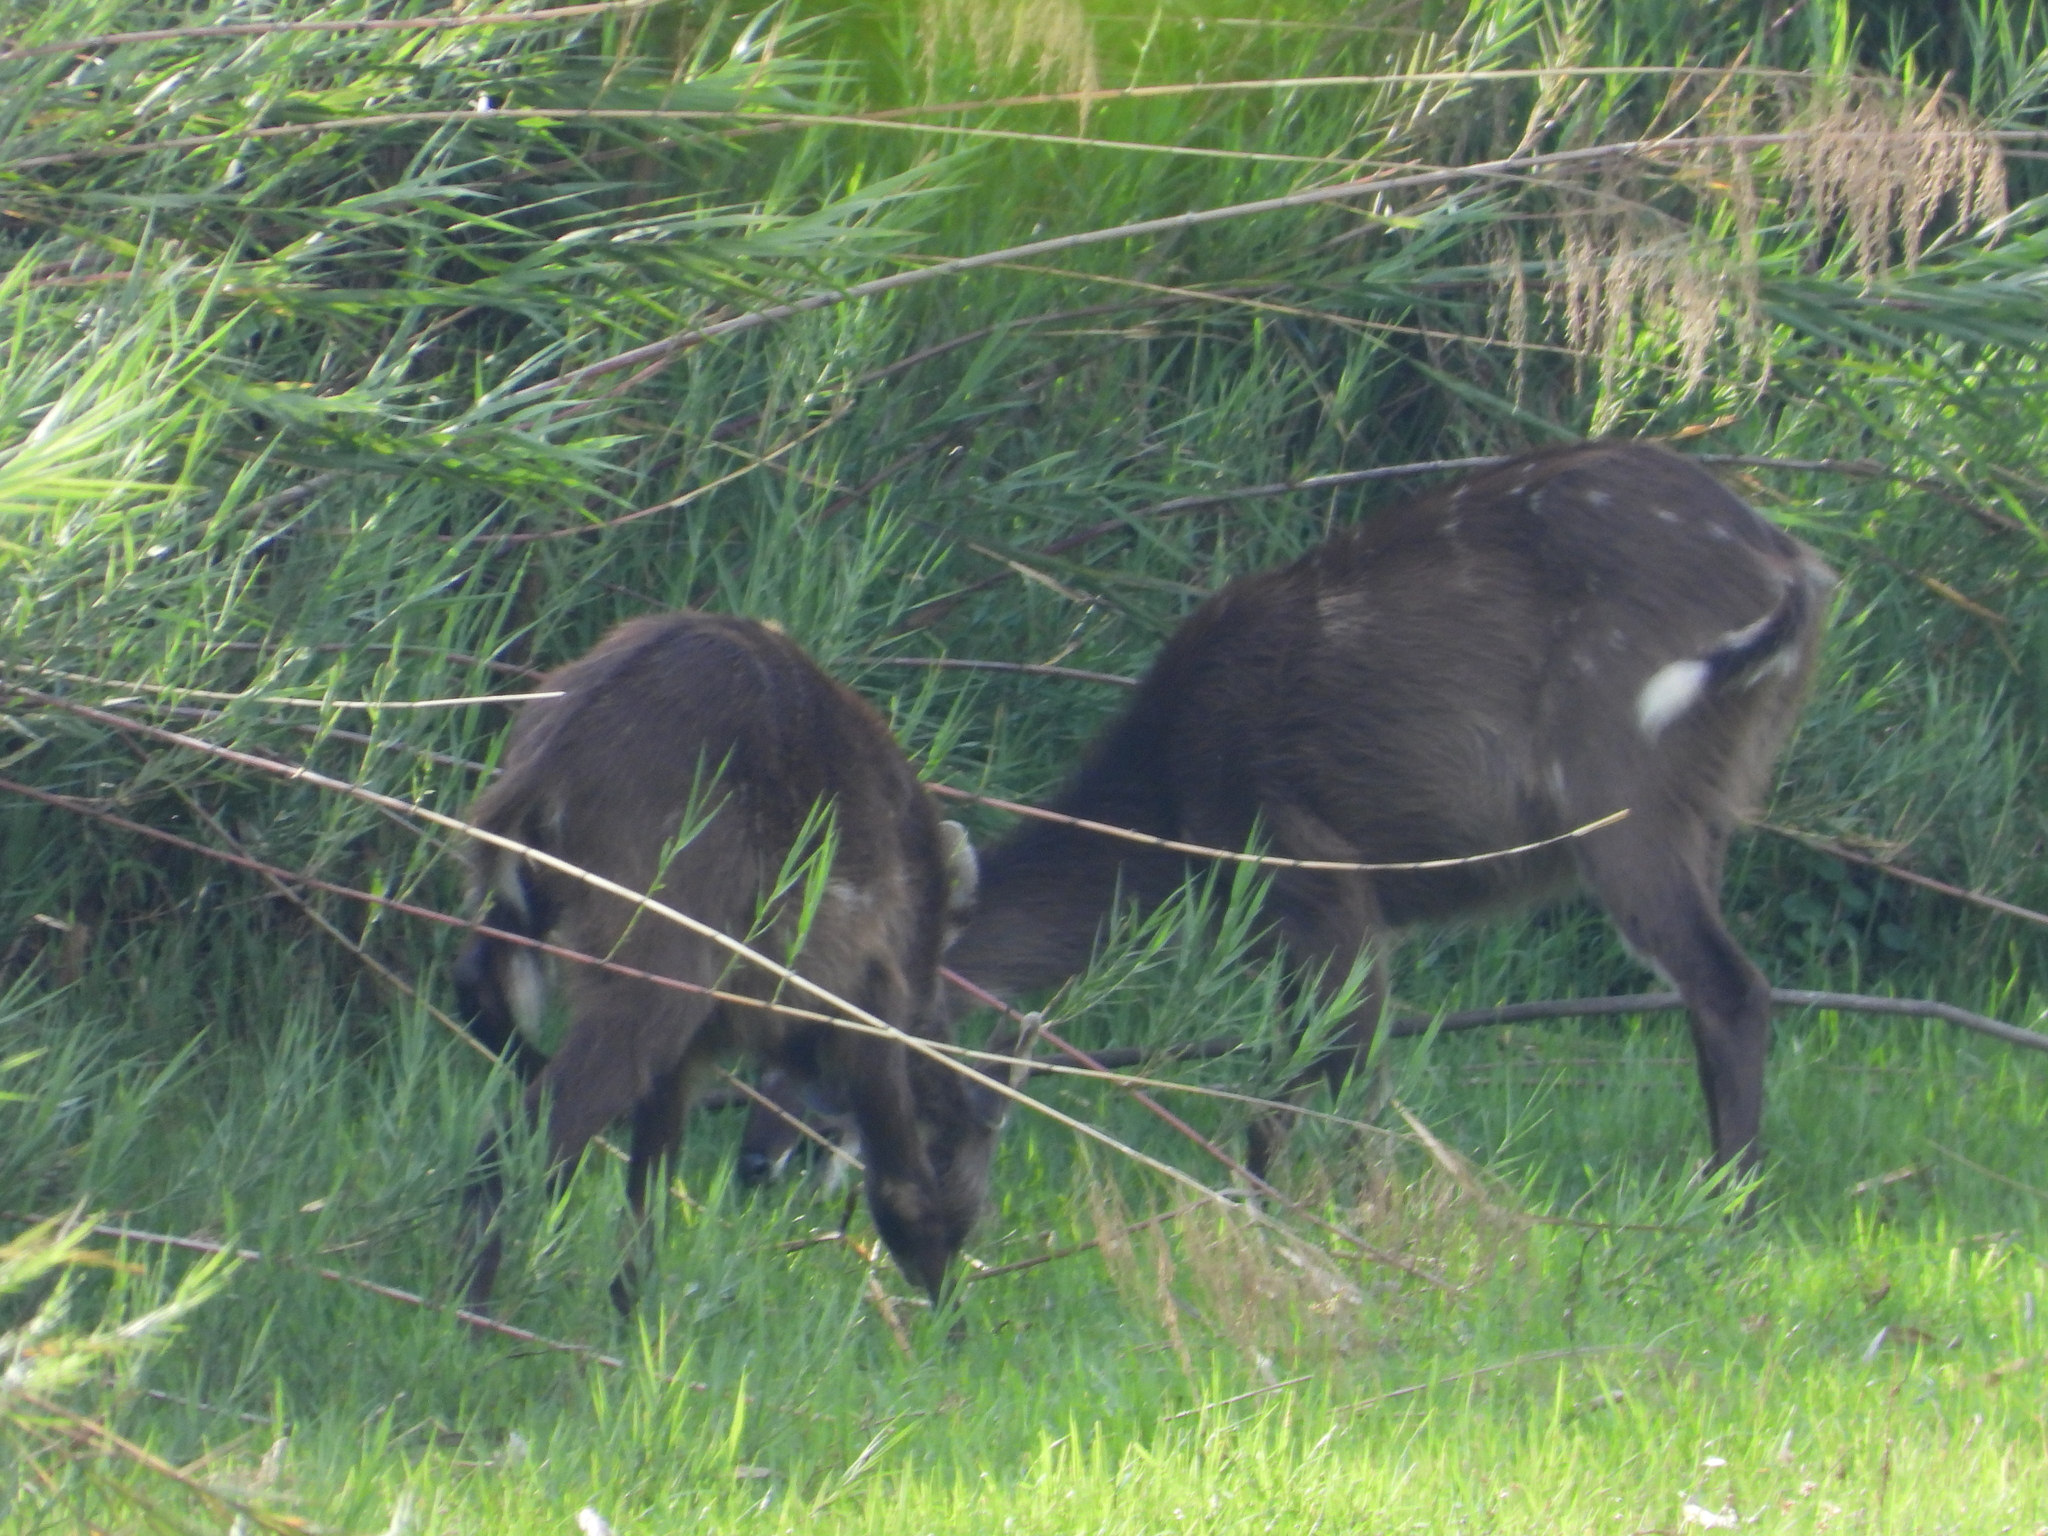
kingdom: Animalia
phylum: Chordata
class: Mammalia
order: Artiodactyla
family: Bovidae
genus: Tragelaphus
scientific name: Tragelaphus spekii
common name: Sitatunga
